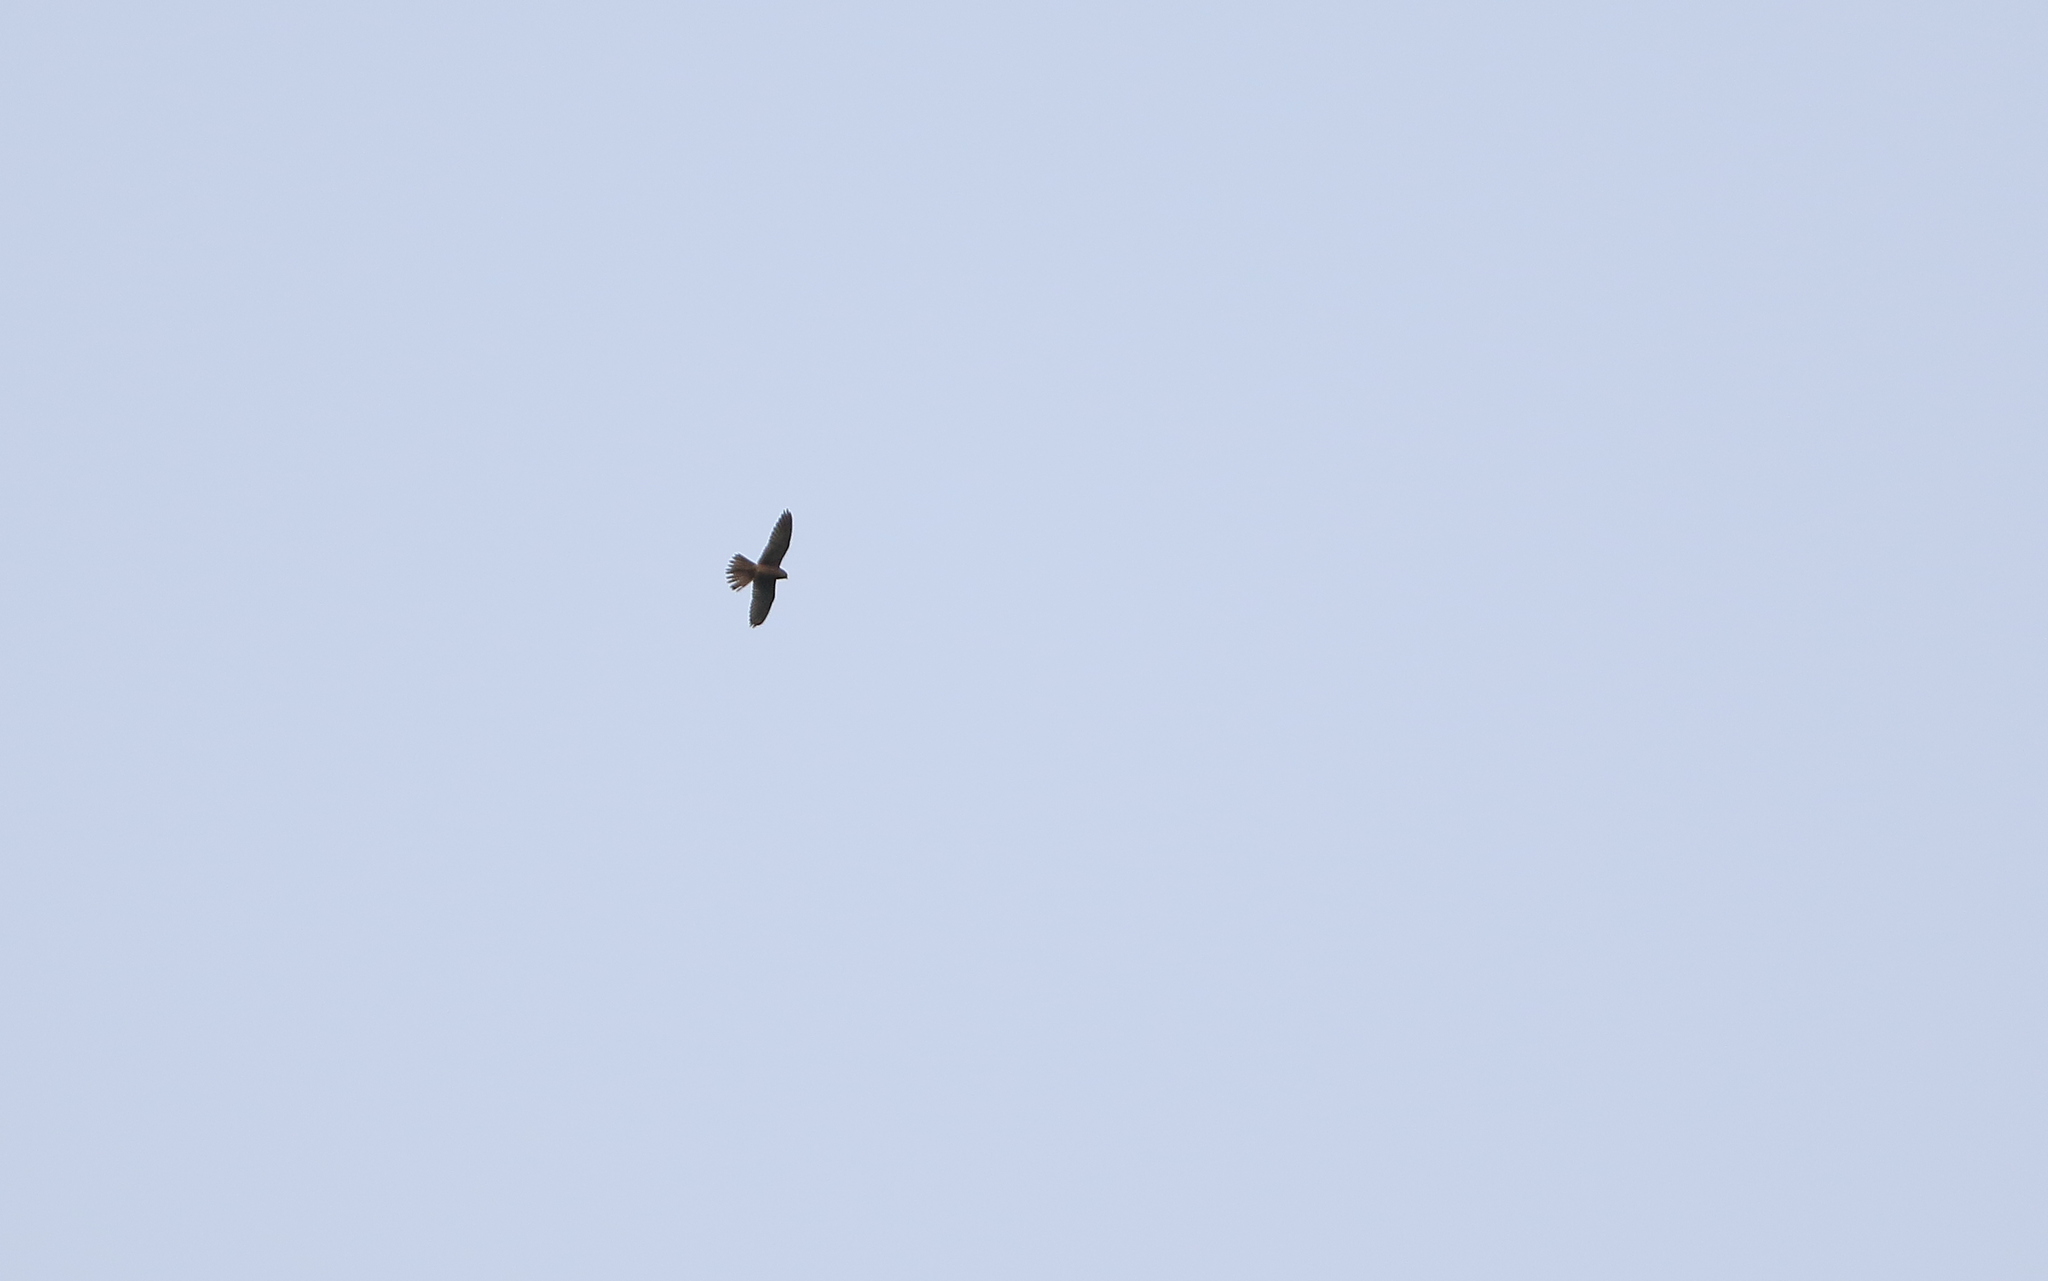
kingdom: Animalia
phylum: Chordata
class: Aves
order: Falconiformes
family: Falconidae
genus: Falco
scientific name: Falco tinnunculus
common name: Common kestrel
